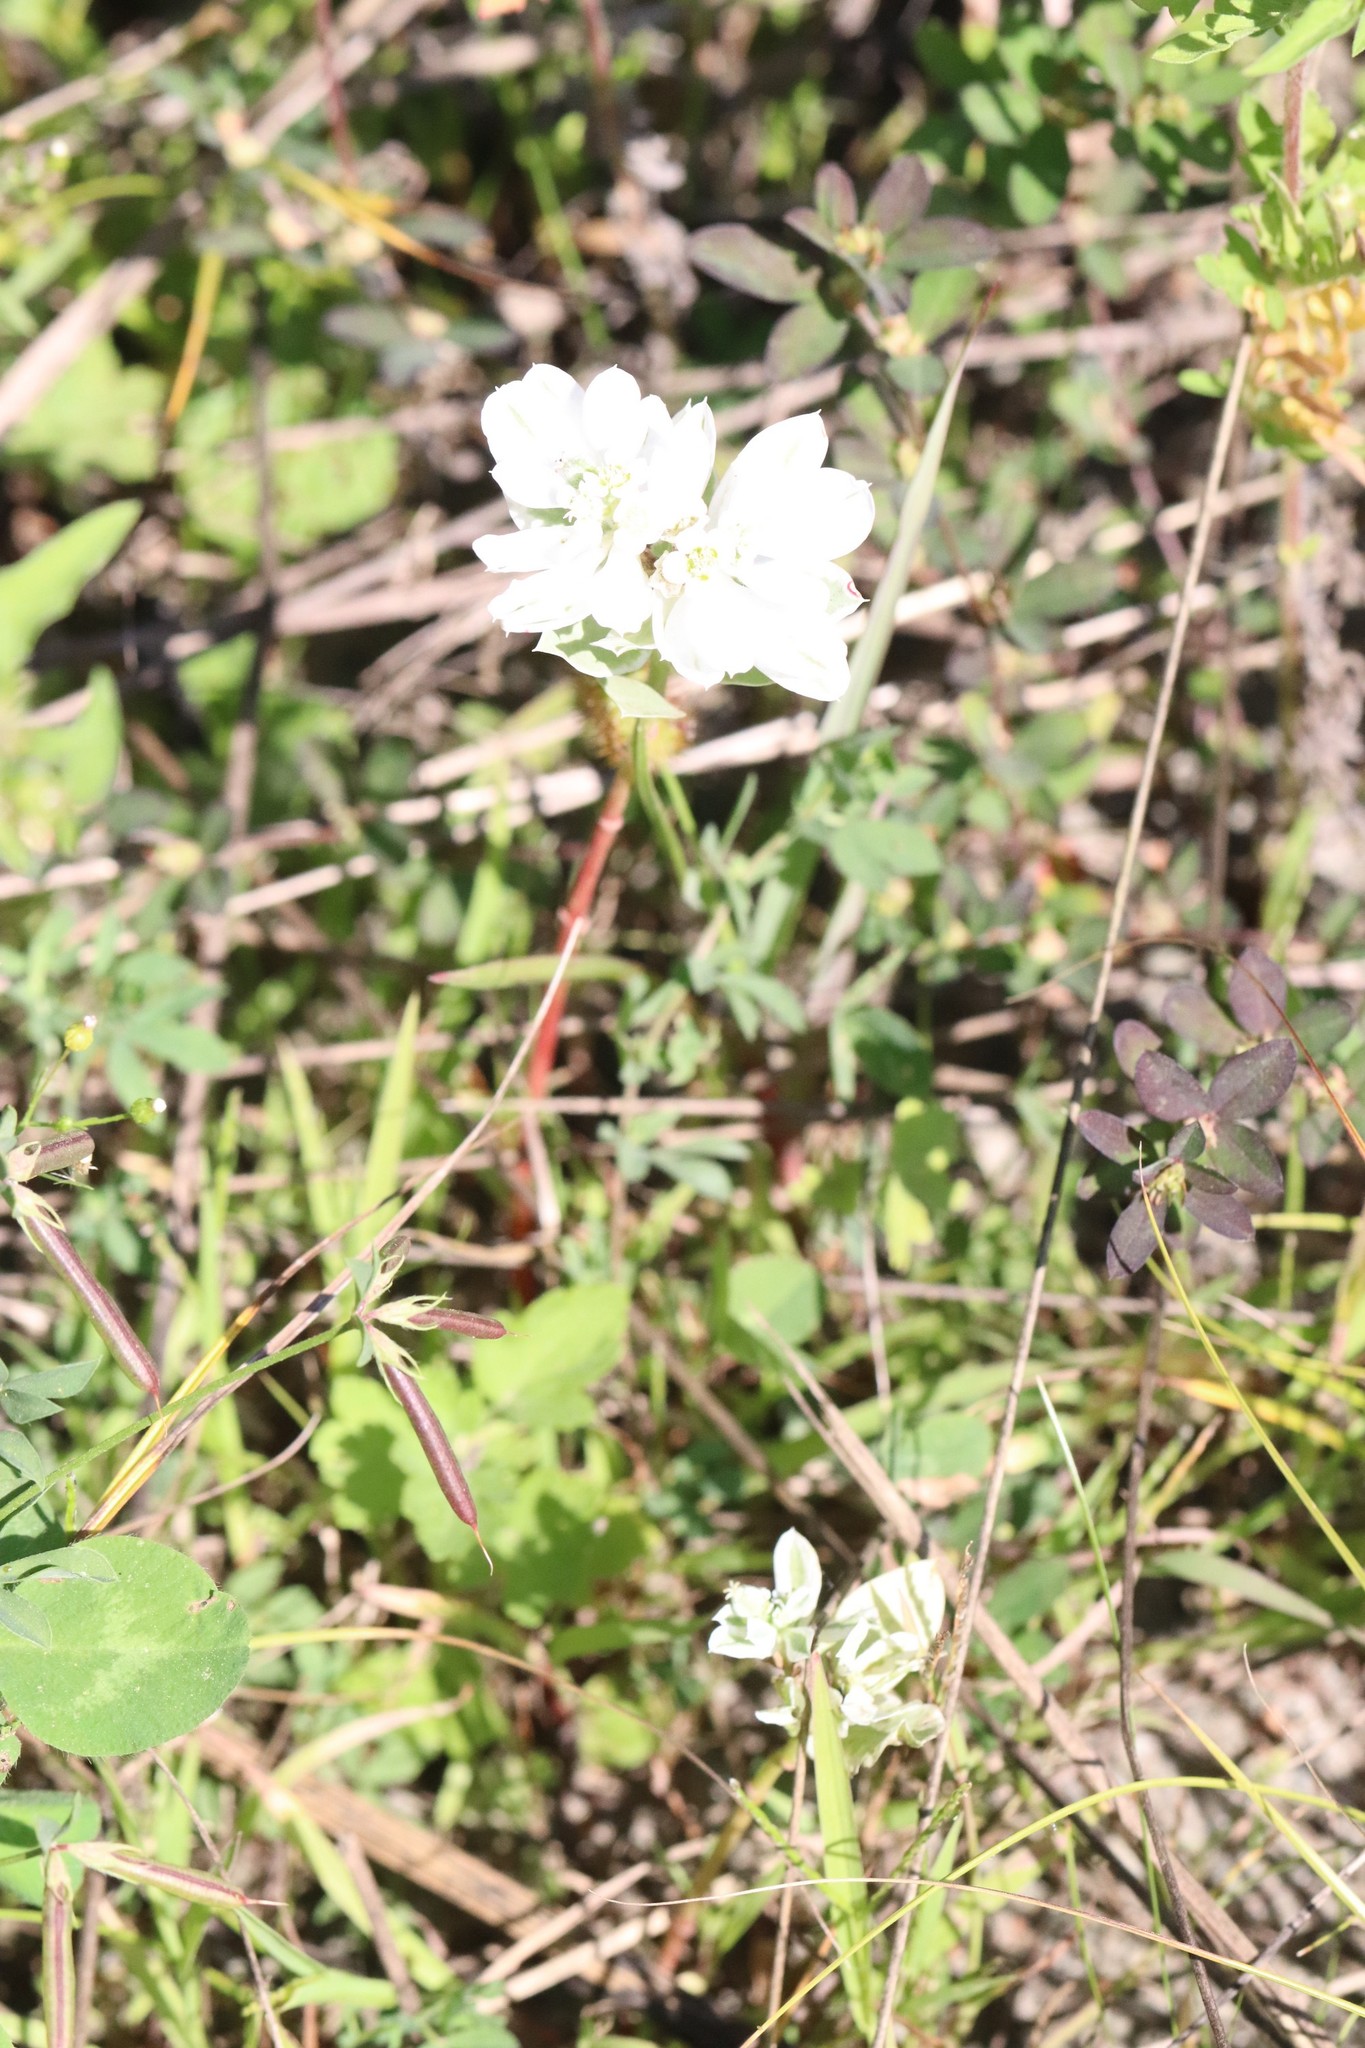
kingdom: Plantae
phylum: Tracheophyta
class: Magnoliopsida
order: Malpighiales
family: Euphorbiaceae
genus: Euphorbia
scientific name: Euphorbia marginata
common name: Ghostweed
